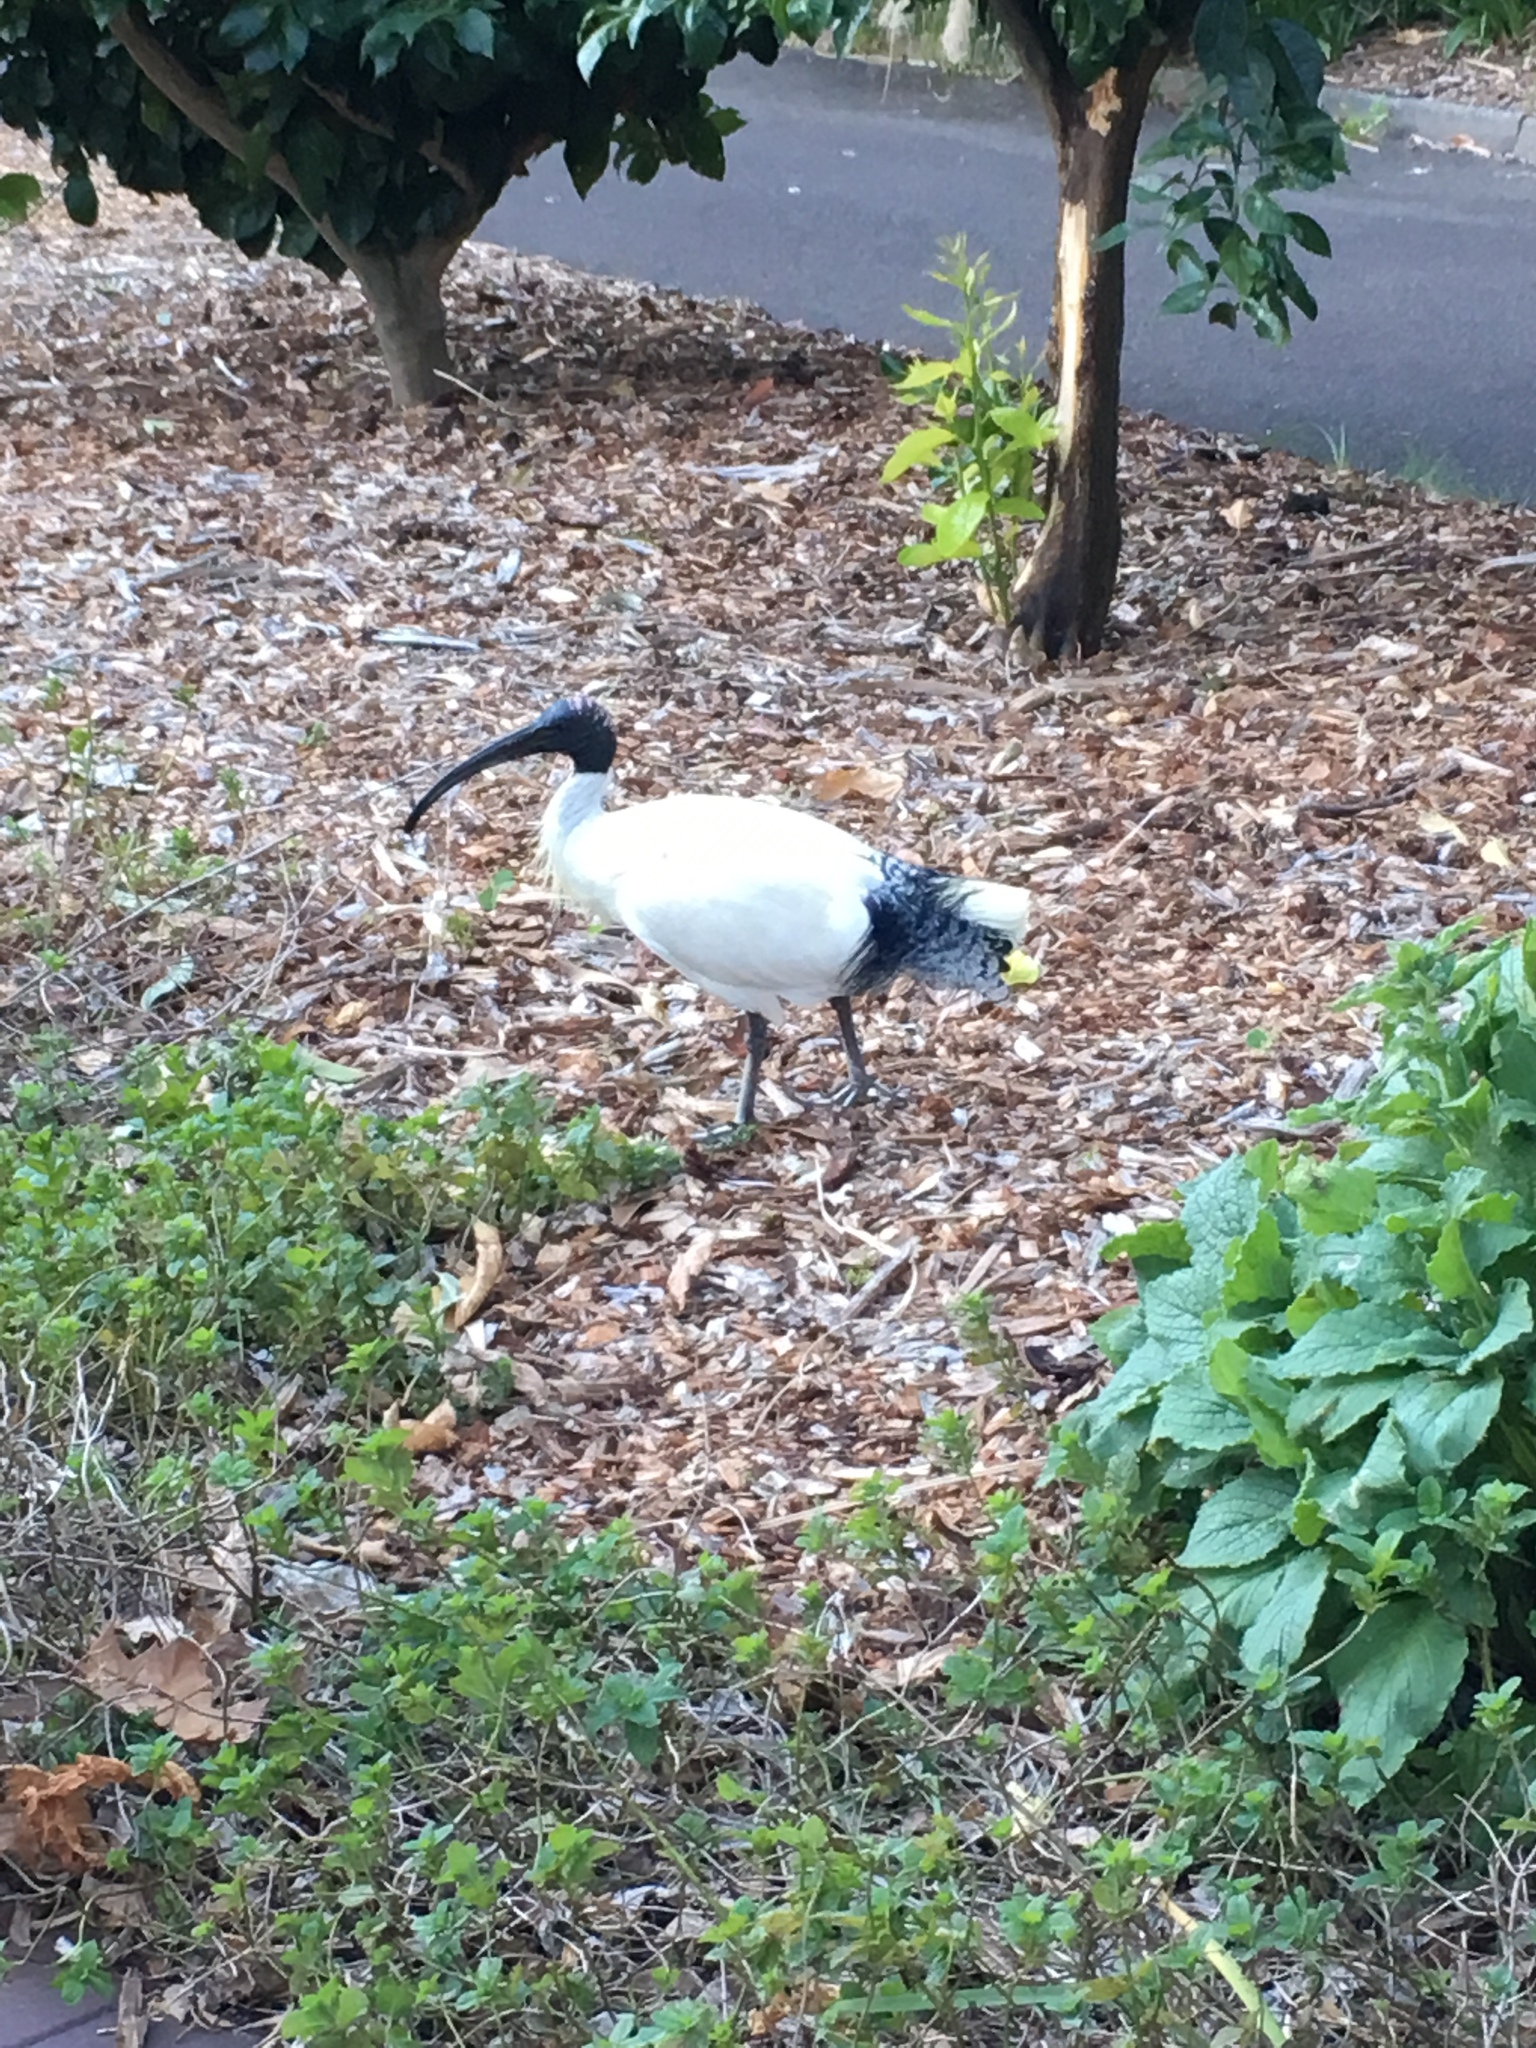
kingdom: Animalia
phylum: Chordata
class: Aves
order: Pelecaniformes
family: Threskiornithidae
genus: Threskiornis
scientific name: Threskiornis molucca
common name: Australian white ibis
